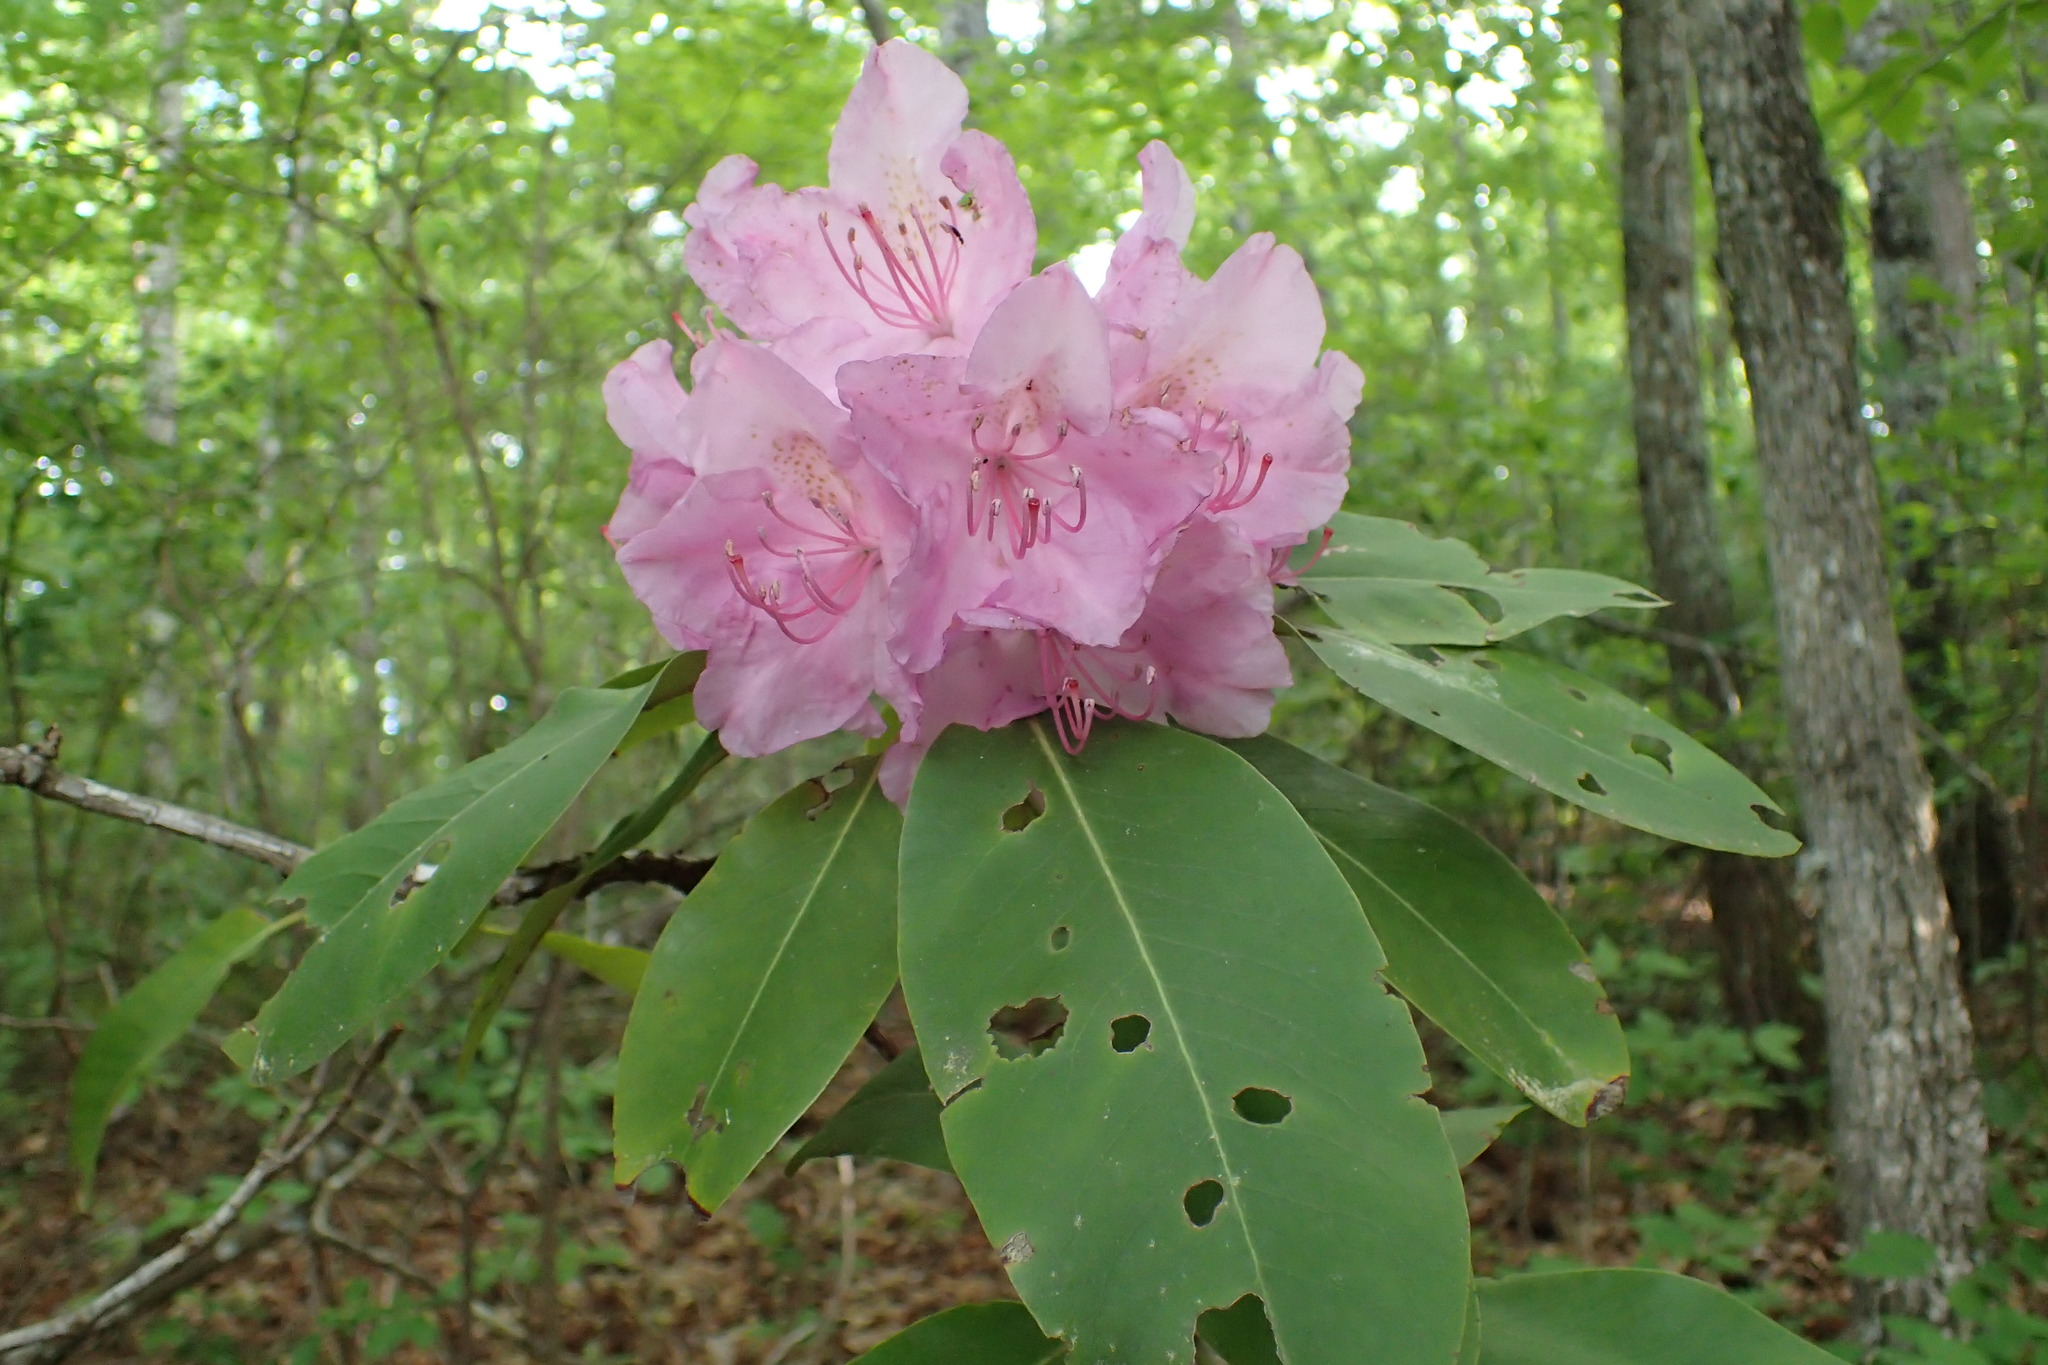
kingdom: Plantae
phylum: Tracheophyta
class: Magnoliopsida
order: Ericales
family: Ericaceae
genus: Rhododendron
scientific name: Rhododendron catawbiense
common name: Catawba rhododendron
